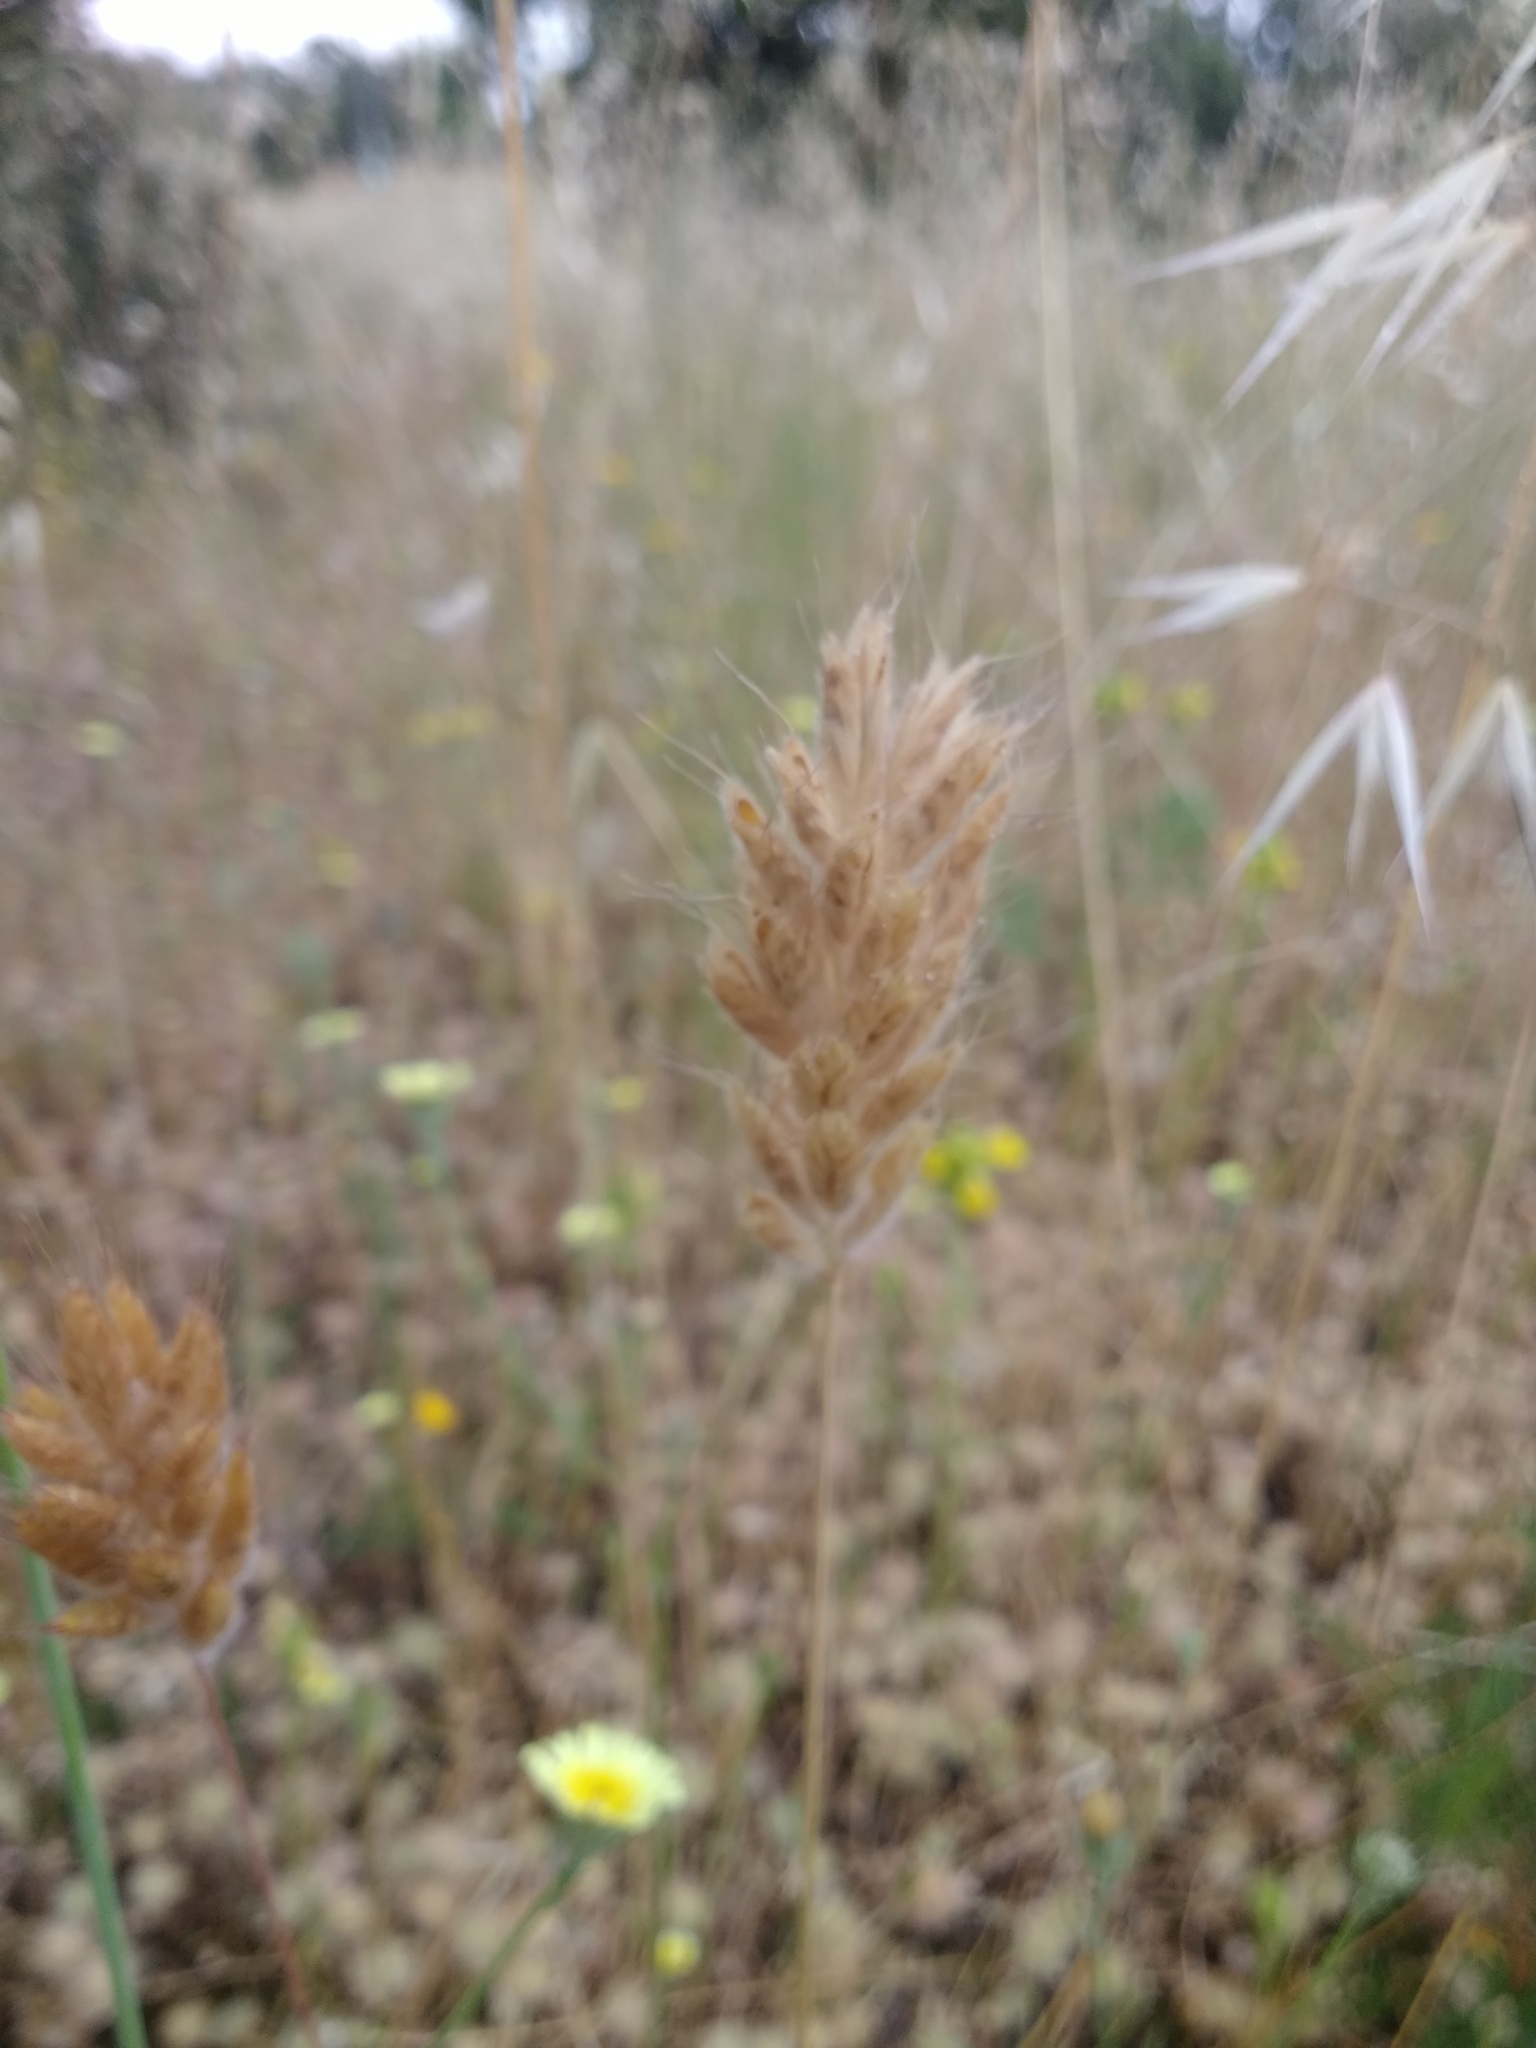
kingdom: Plantae
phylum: Tracheophyta
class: Liliopsida
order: Poales
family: Poaceae
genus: Bromus
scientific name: Bromus hordeaceus
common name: Soft brome
